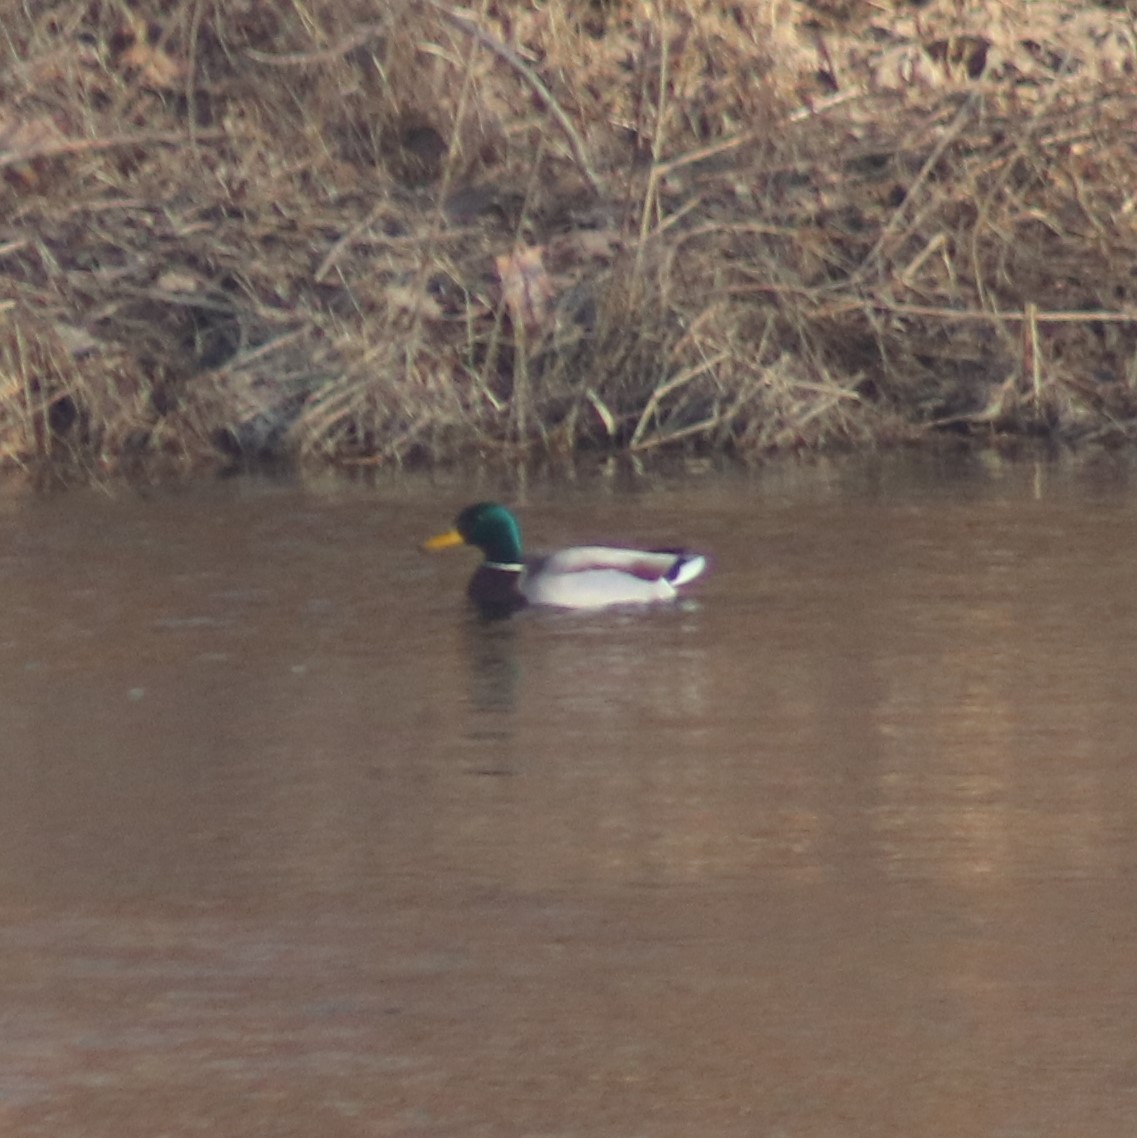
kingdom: Animalia
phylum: Chordata
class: Aves
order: Anseriformes
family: Anatidae
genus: Anas
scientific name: Anas platyrhynchos
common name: Mallard
